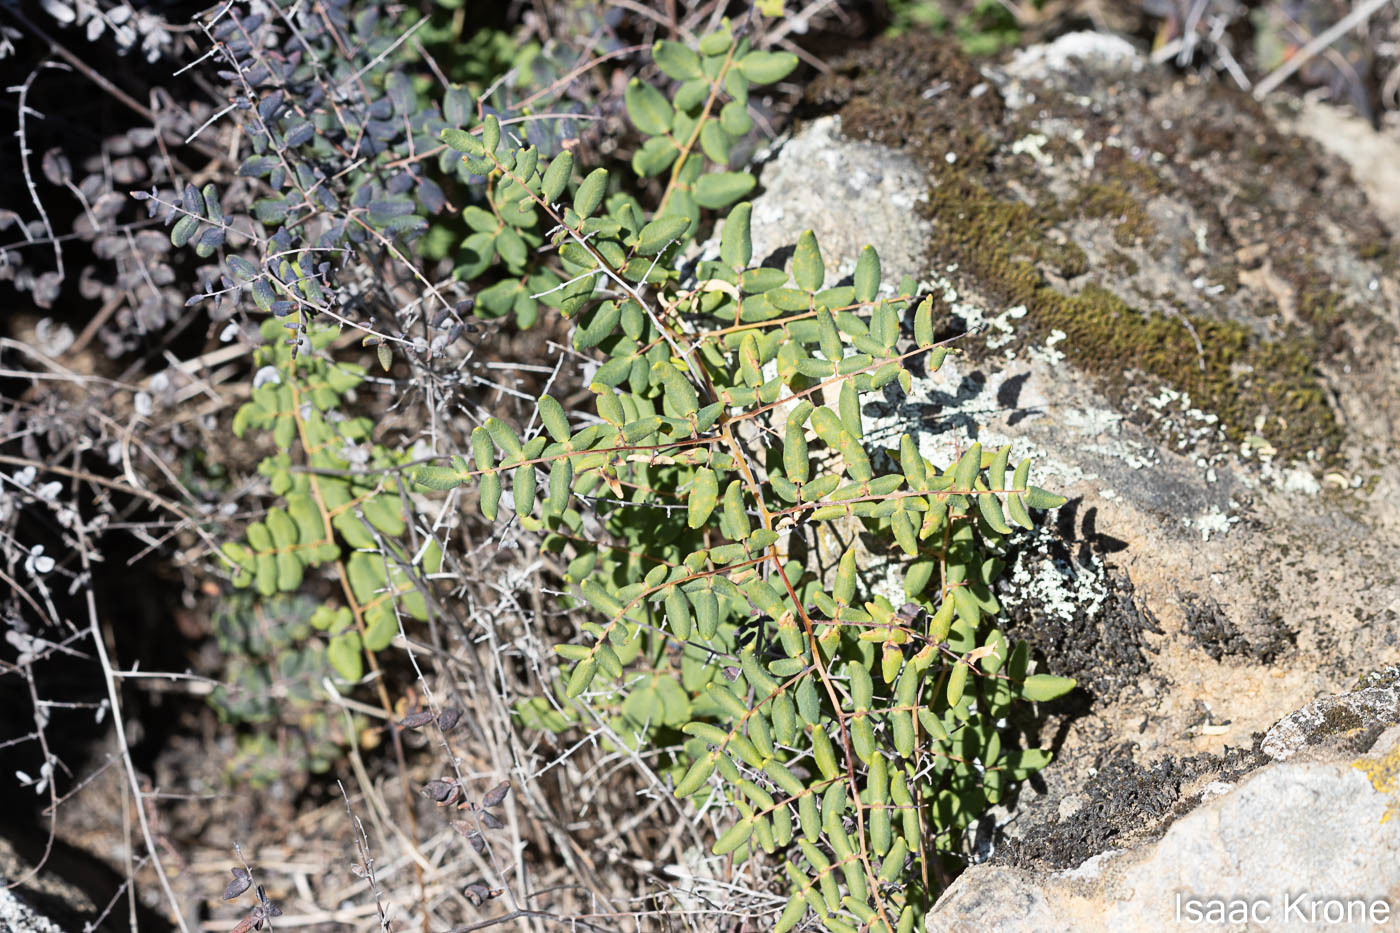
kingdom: Plantae
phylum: Tracheophyta
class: Polypodiopsida
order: Polypodiales
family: Pteridaceae
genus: Pellaea
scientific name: Pellaea andromedifolia
